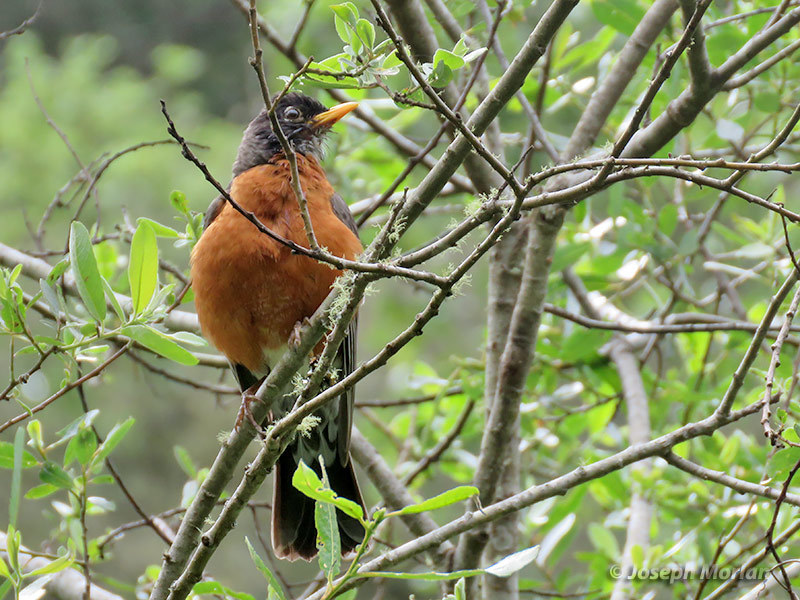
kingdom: Animalia
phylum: Chordata
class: Aves
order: Passeriformes
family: Turdidae
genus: Turdus
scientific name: Turdus migratorius
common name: American robin
